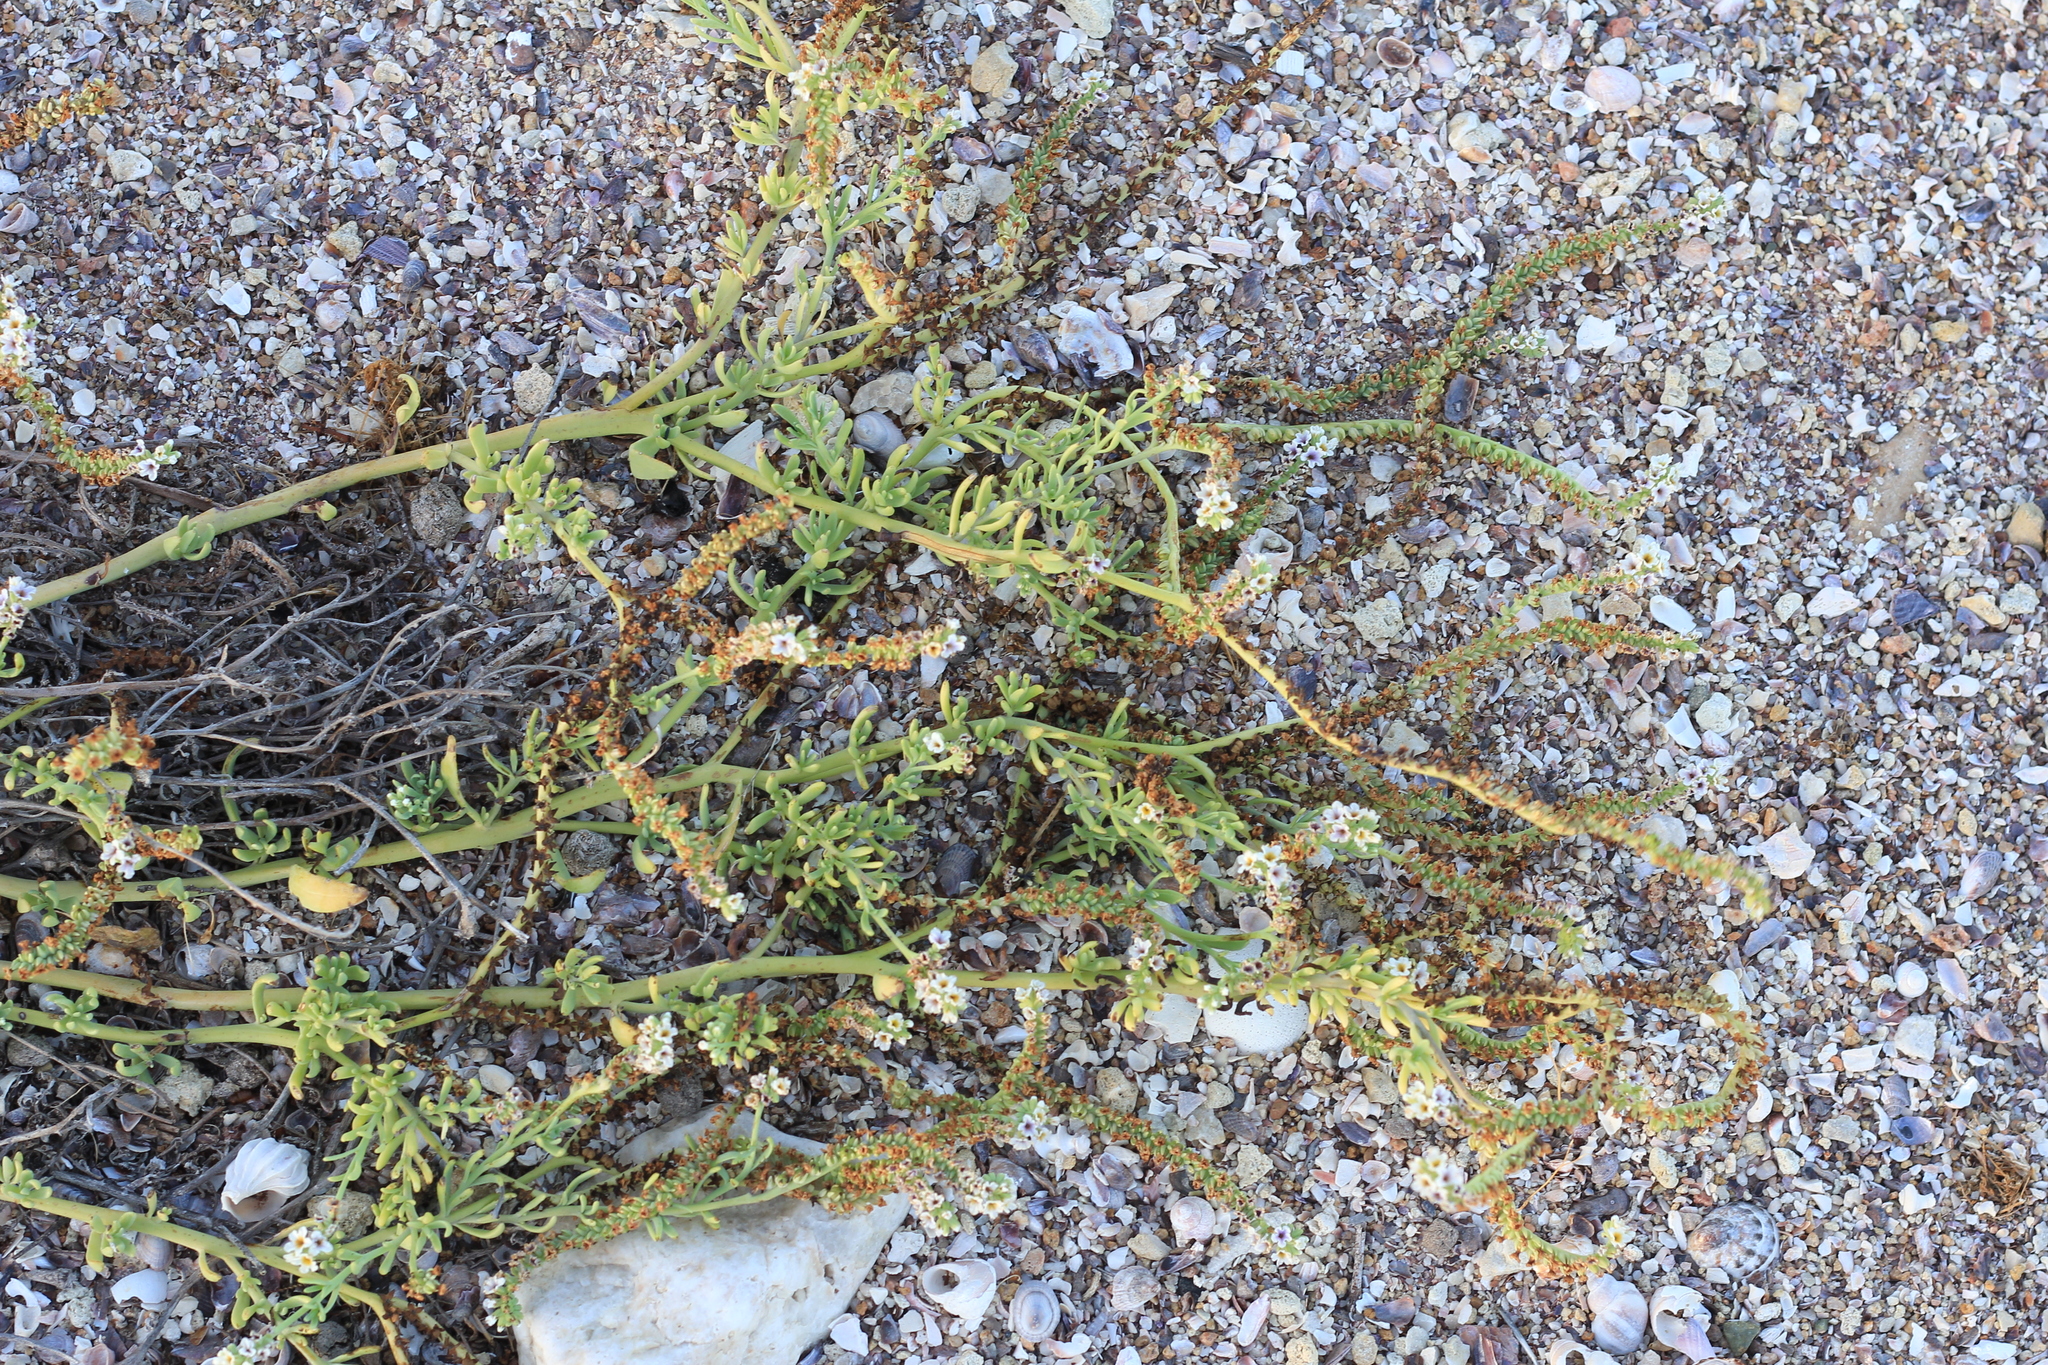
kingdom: Plantae
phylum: Tracheophyta
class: Magnoliopsida
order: Boraginales
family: Heliotropiaceae
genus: Heliotropium
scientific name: Heliotropium curassavicum
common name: Seaside heliotrope
